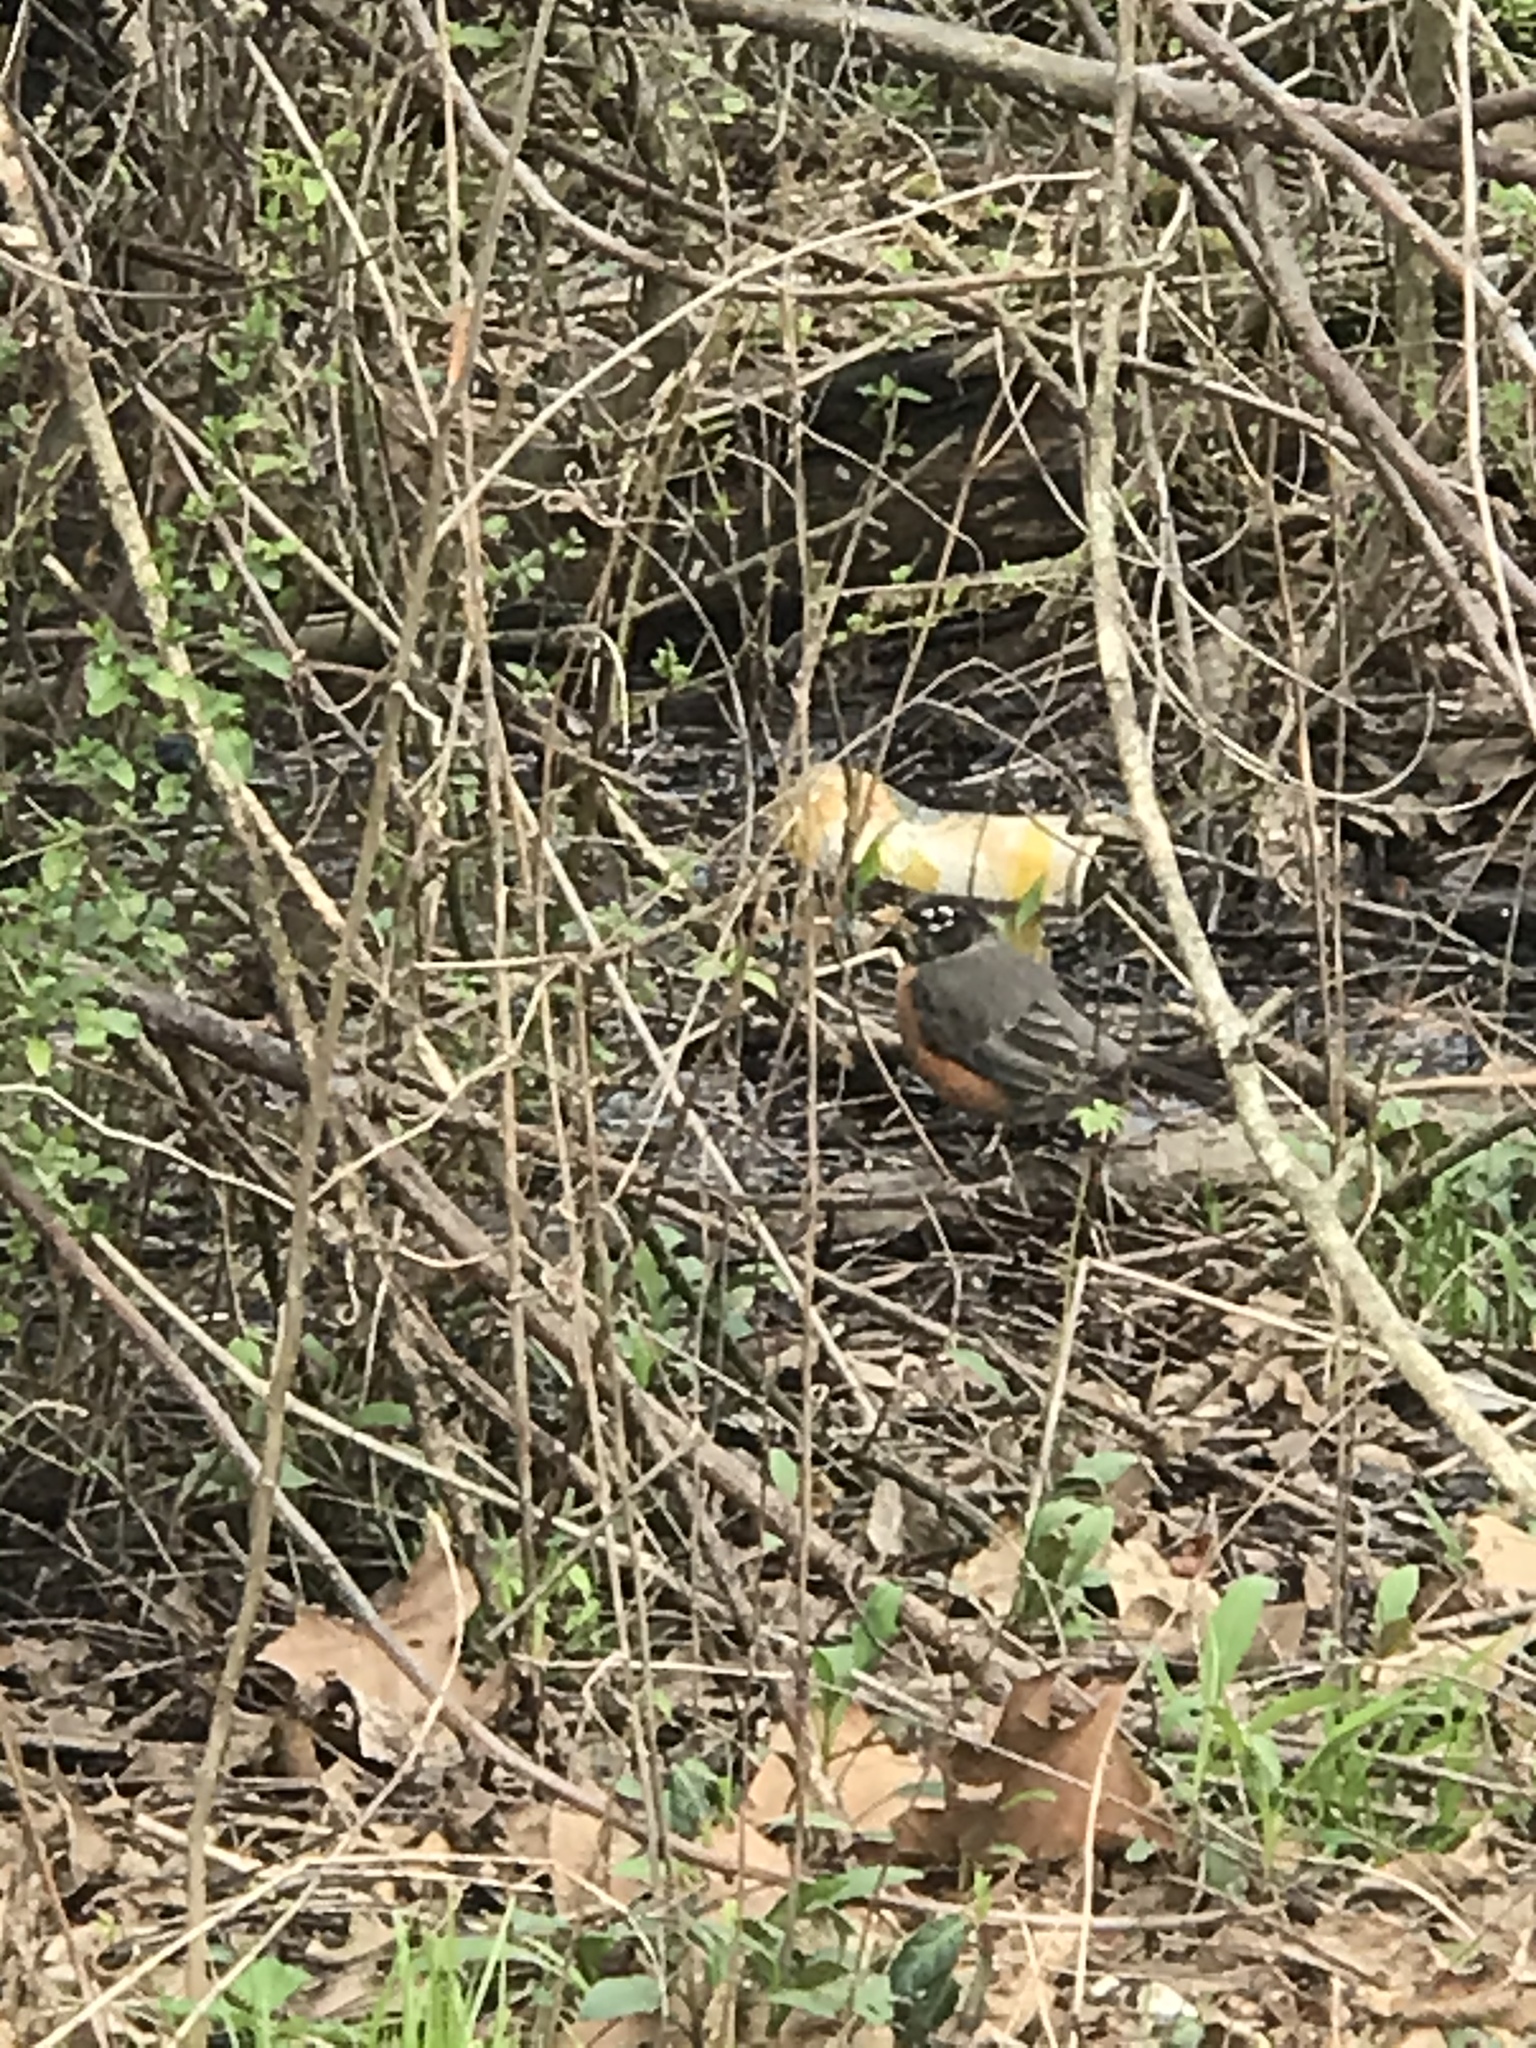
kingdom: Animalia
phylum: Chordata
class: Aves
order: Passeriformes
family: Turdidae
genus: Turdus
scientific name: Turdus migratorius
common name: American robin
